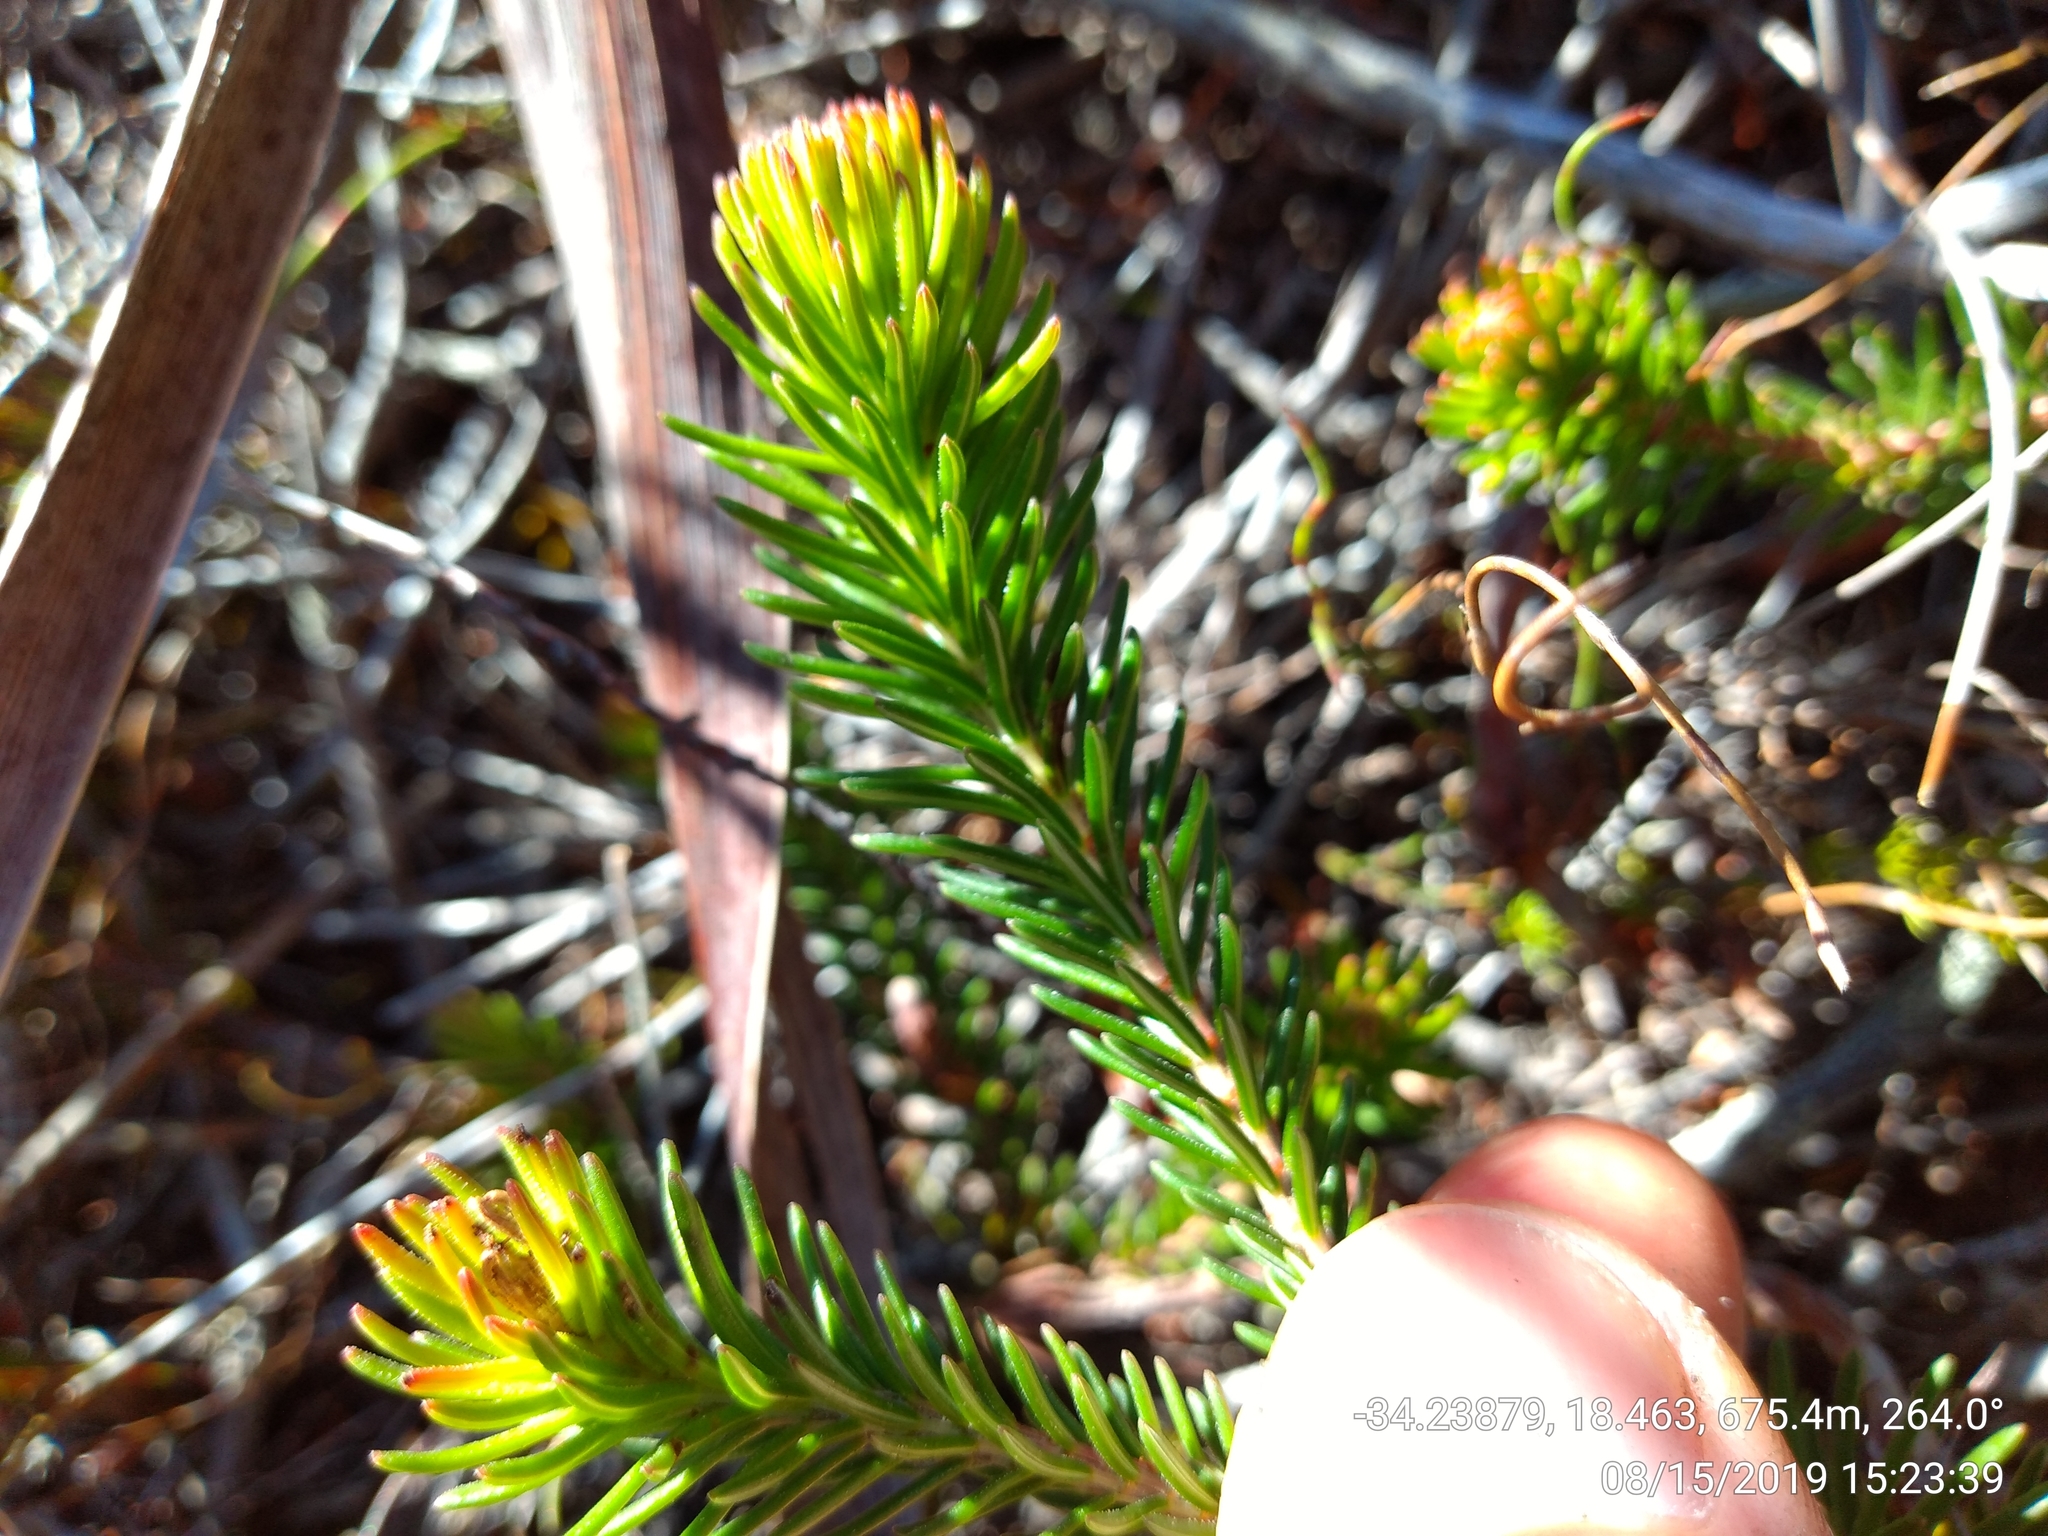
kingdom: Plantae
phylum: Tracheophyta
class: Magnoliopsida
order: Ericales
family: Ericaceae
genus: Erica
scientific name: Erica quadrisulcata
